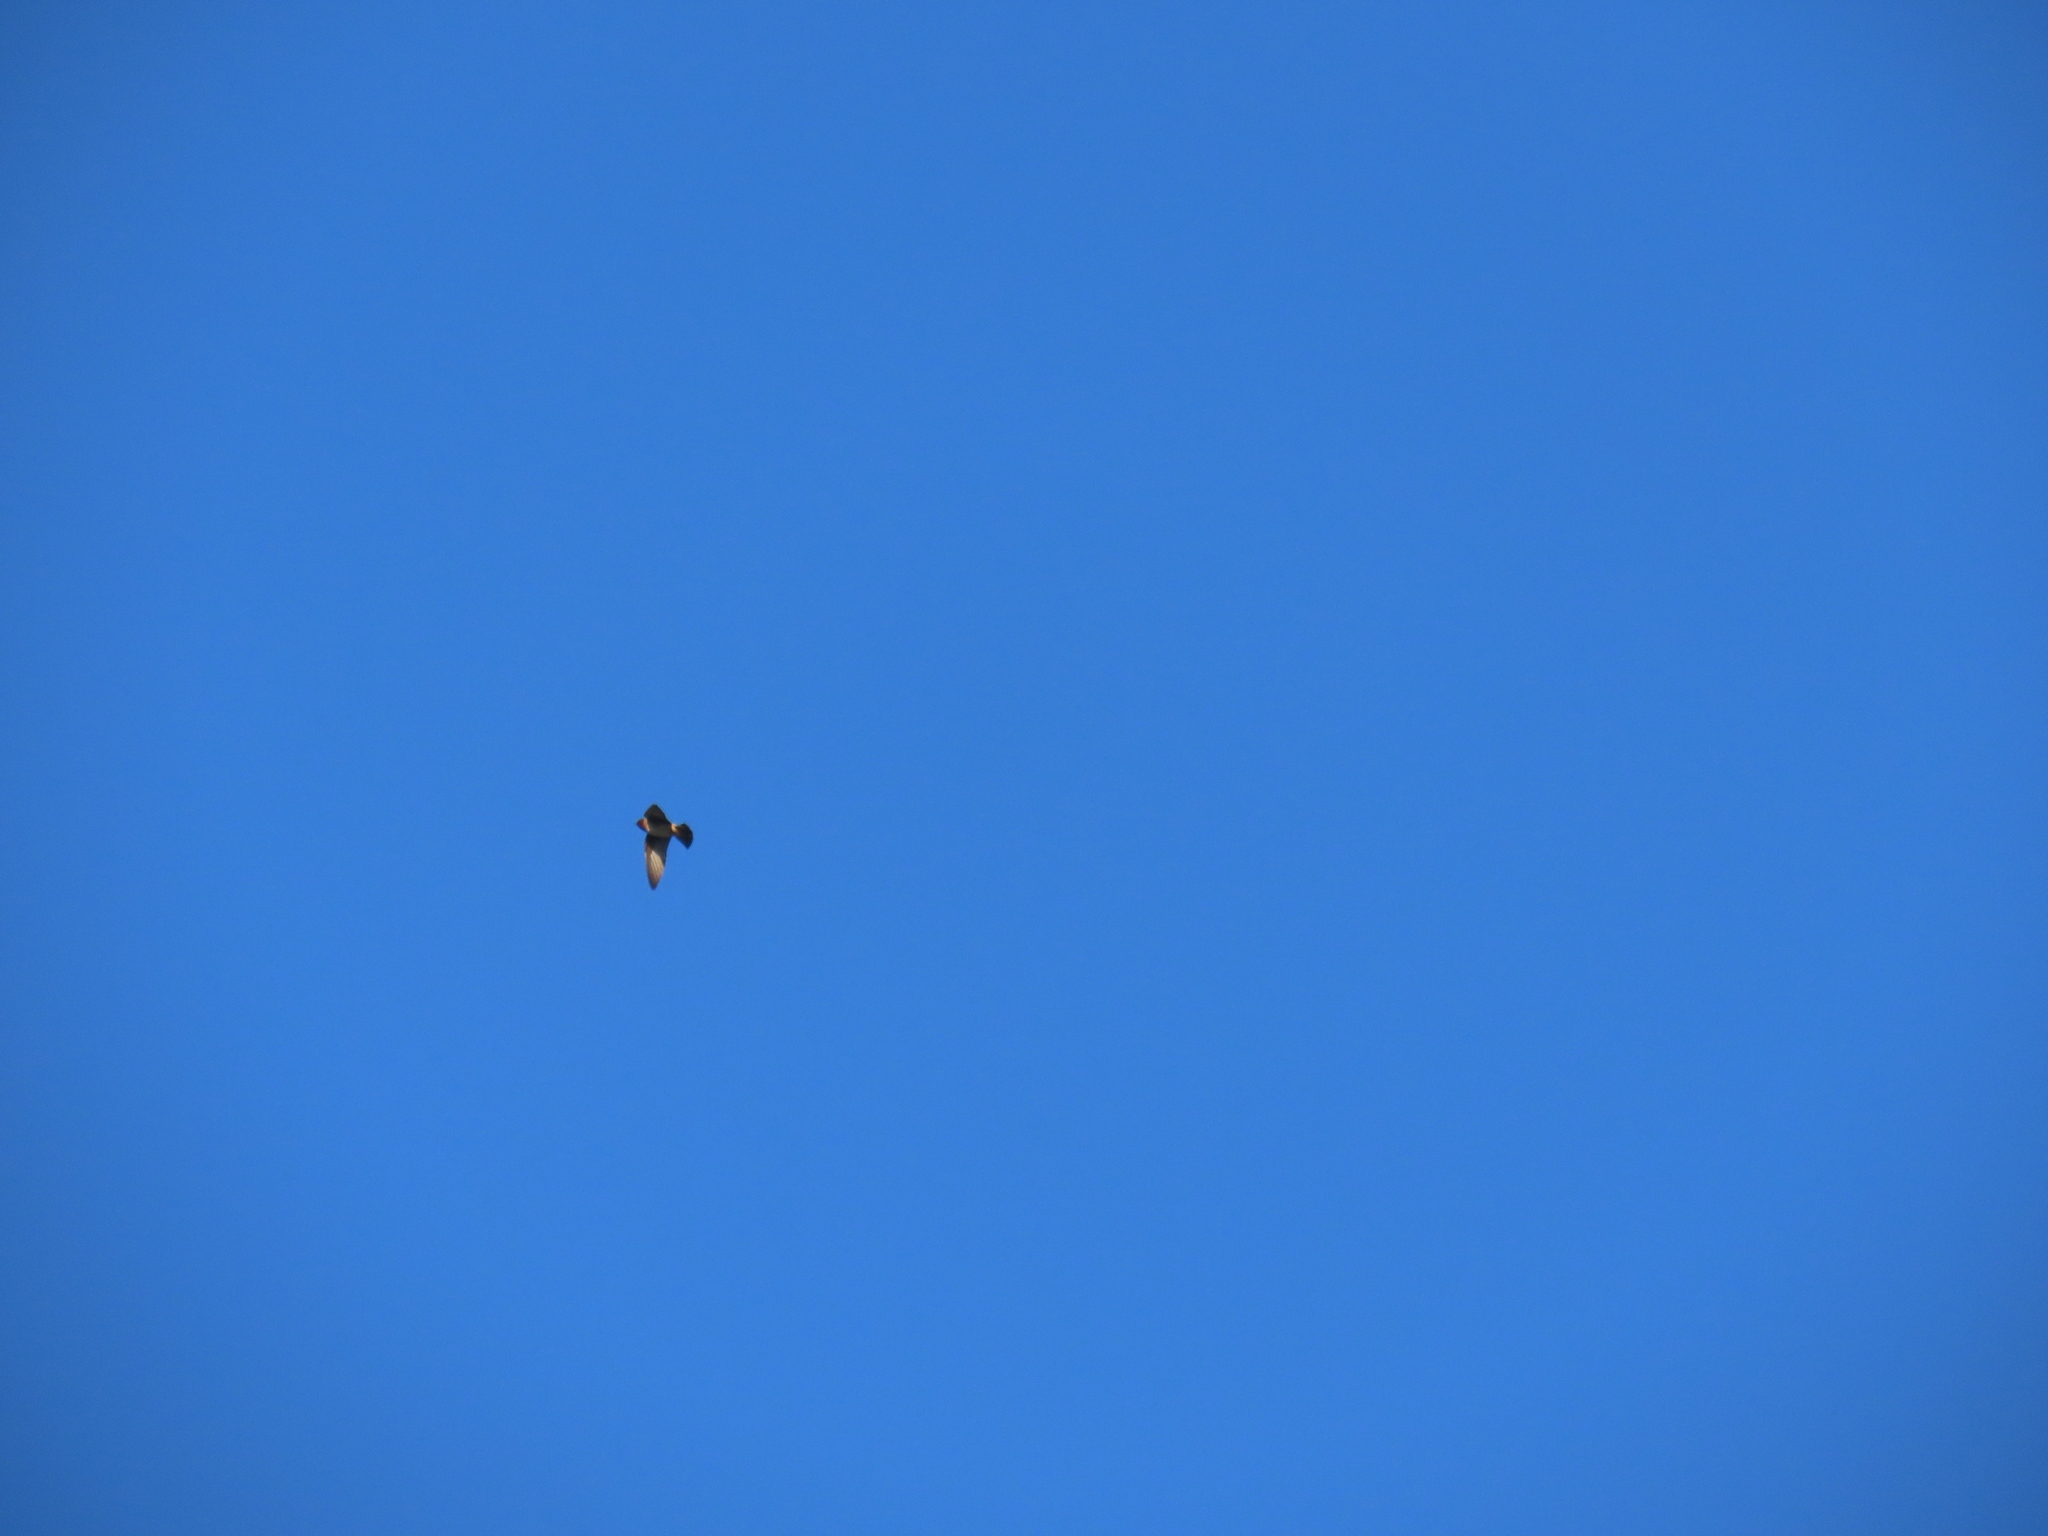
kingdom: Animalia
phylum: Chordata
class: Aves
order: Passeriformes
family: Hirundinidae
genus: Petrochelidon
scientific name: Petrochelidon pyrrhonota
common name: American cliff swallow
